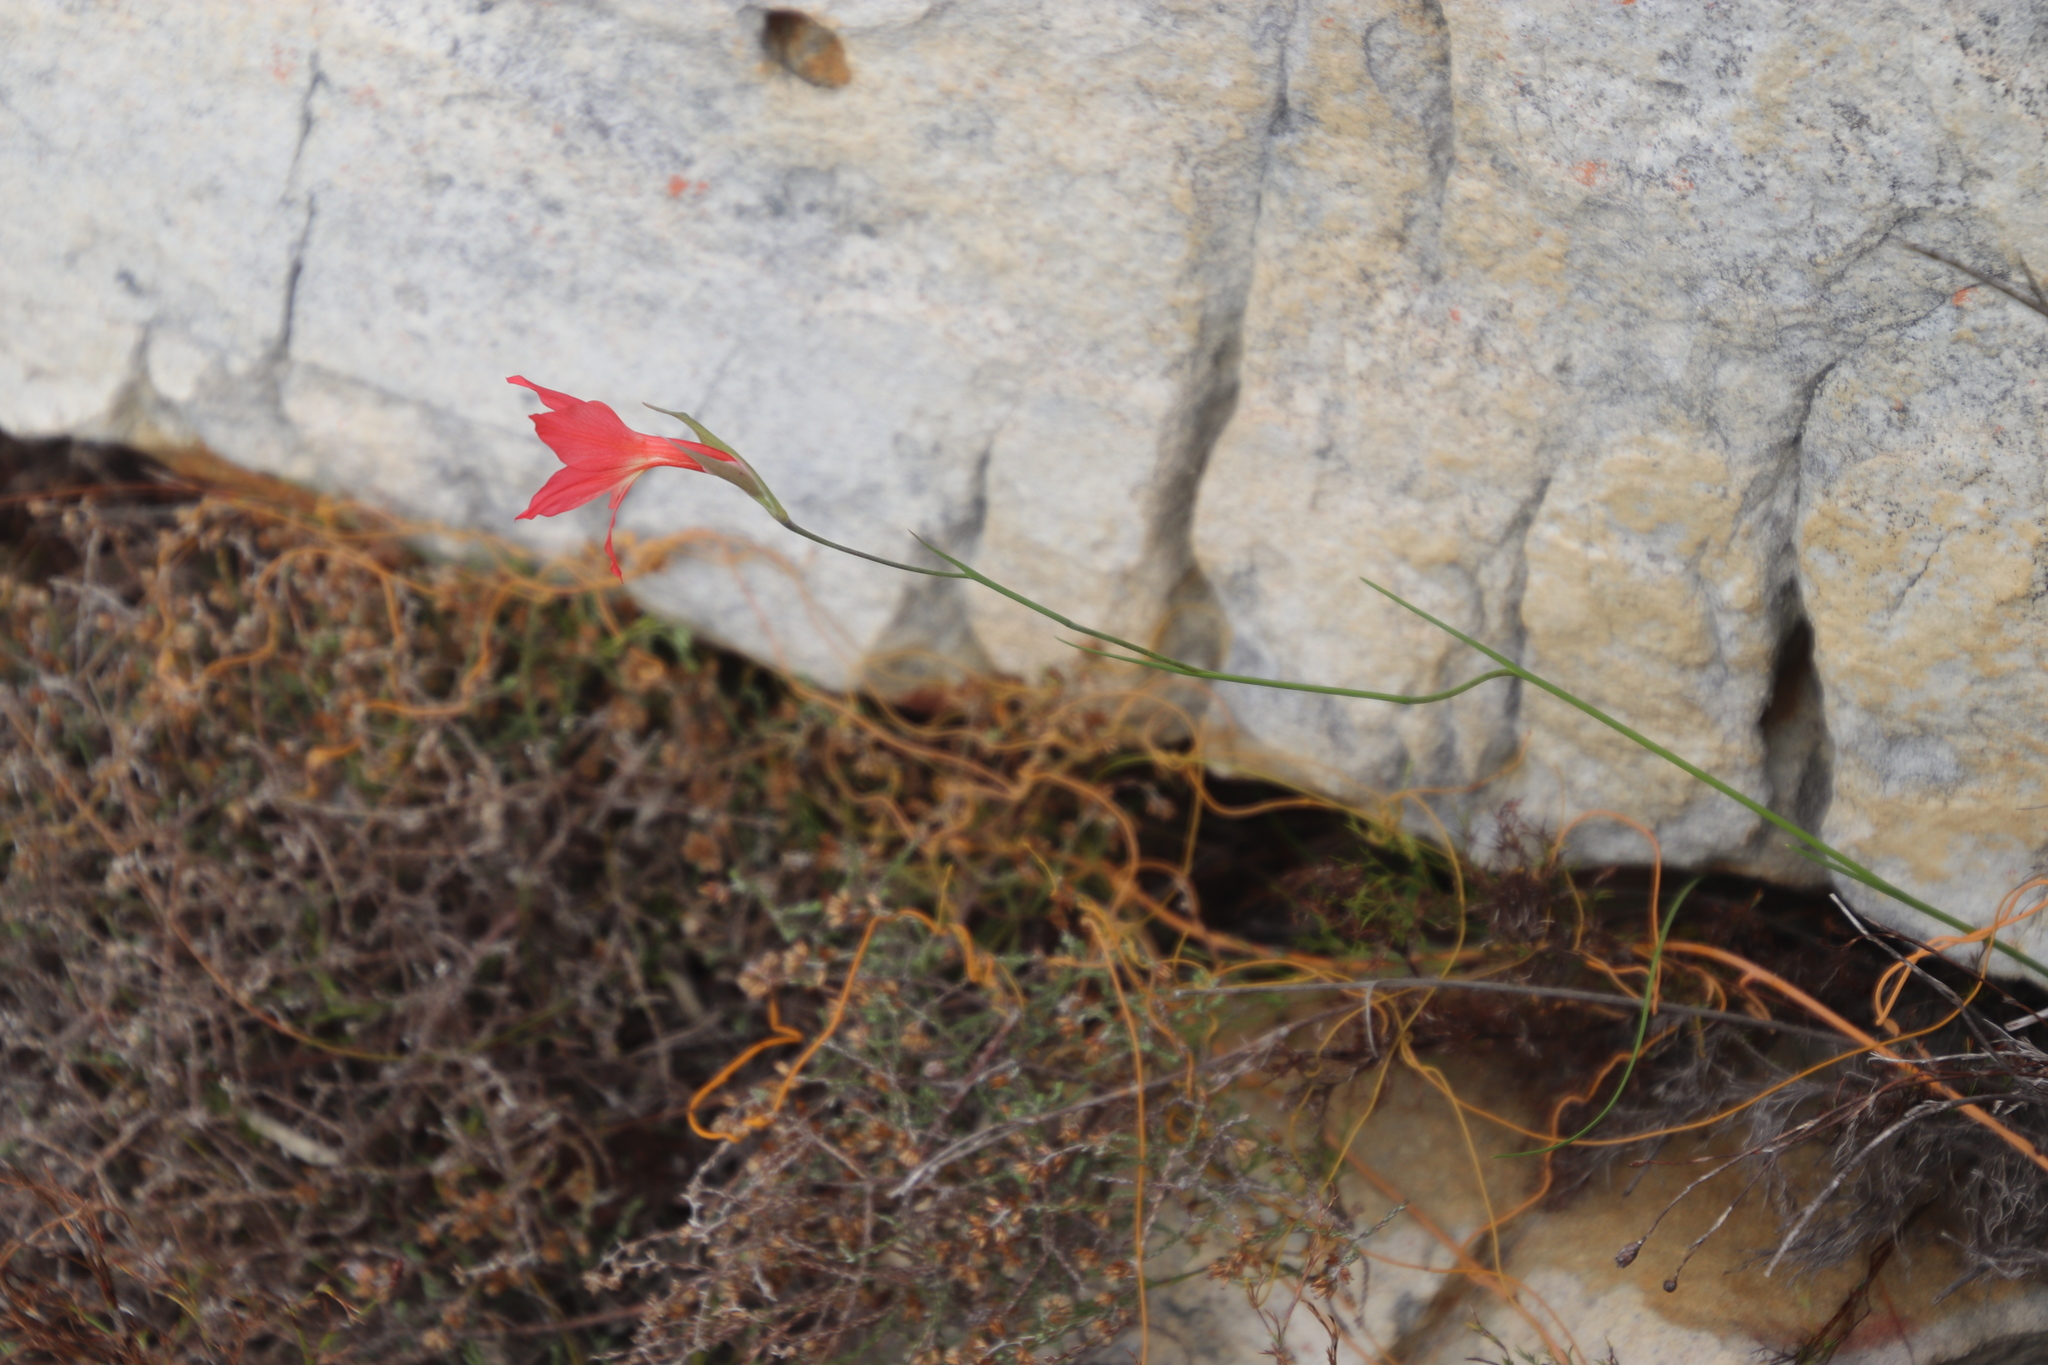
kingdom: Plantae
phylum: Tracheophyta
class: Liliopsida
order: Asparagales
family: Iridaceae
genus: Gladiolus
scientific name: Gladiolus priorii
